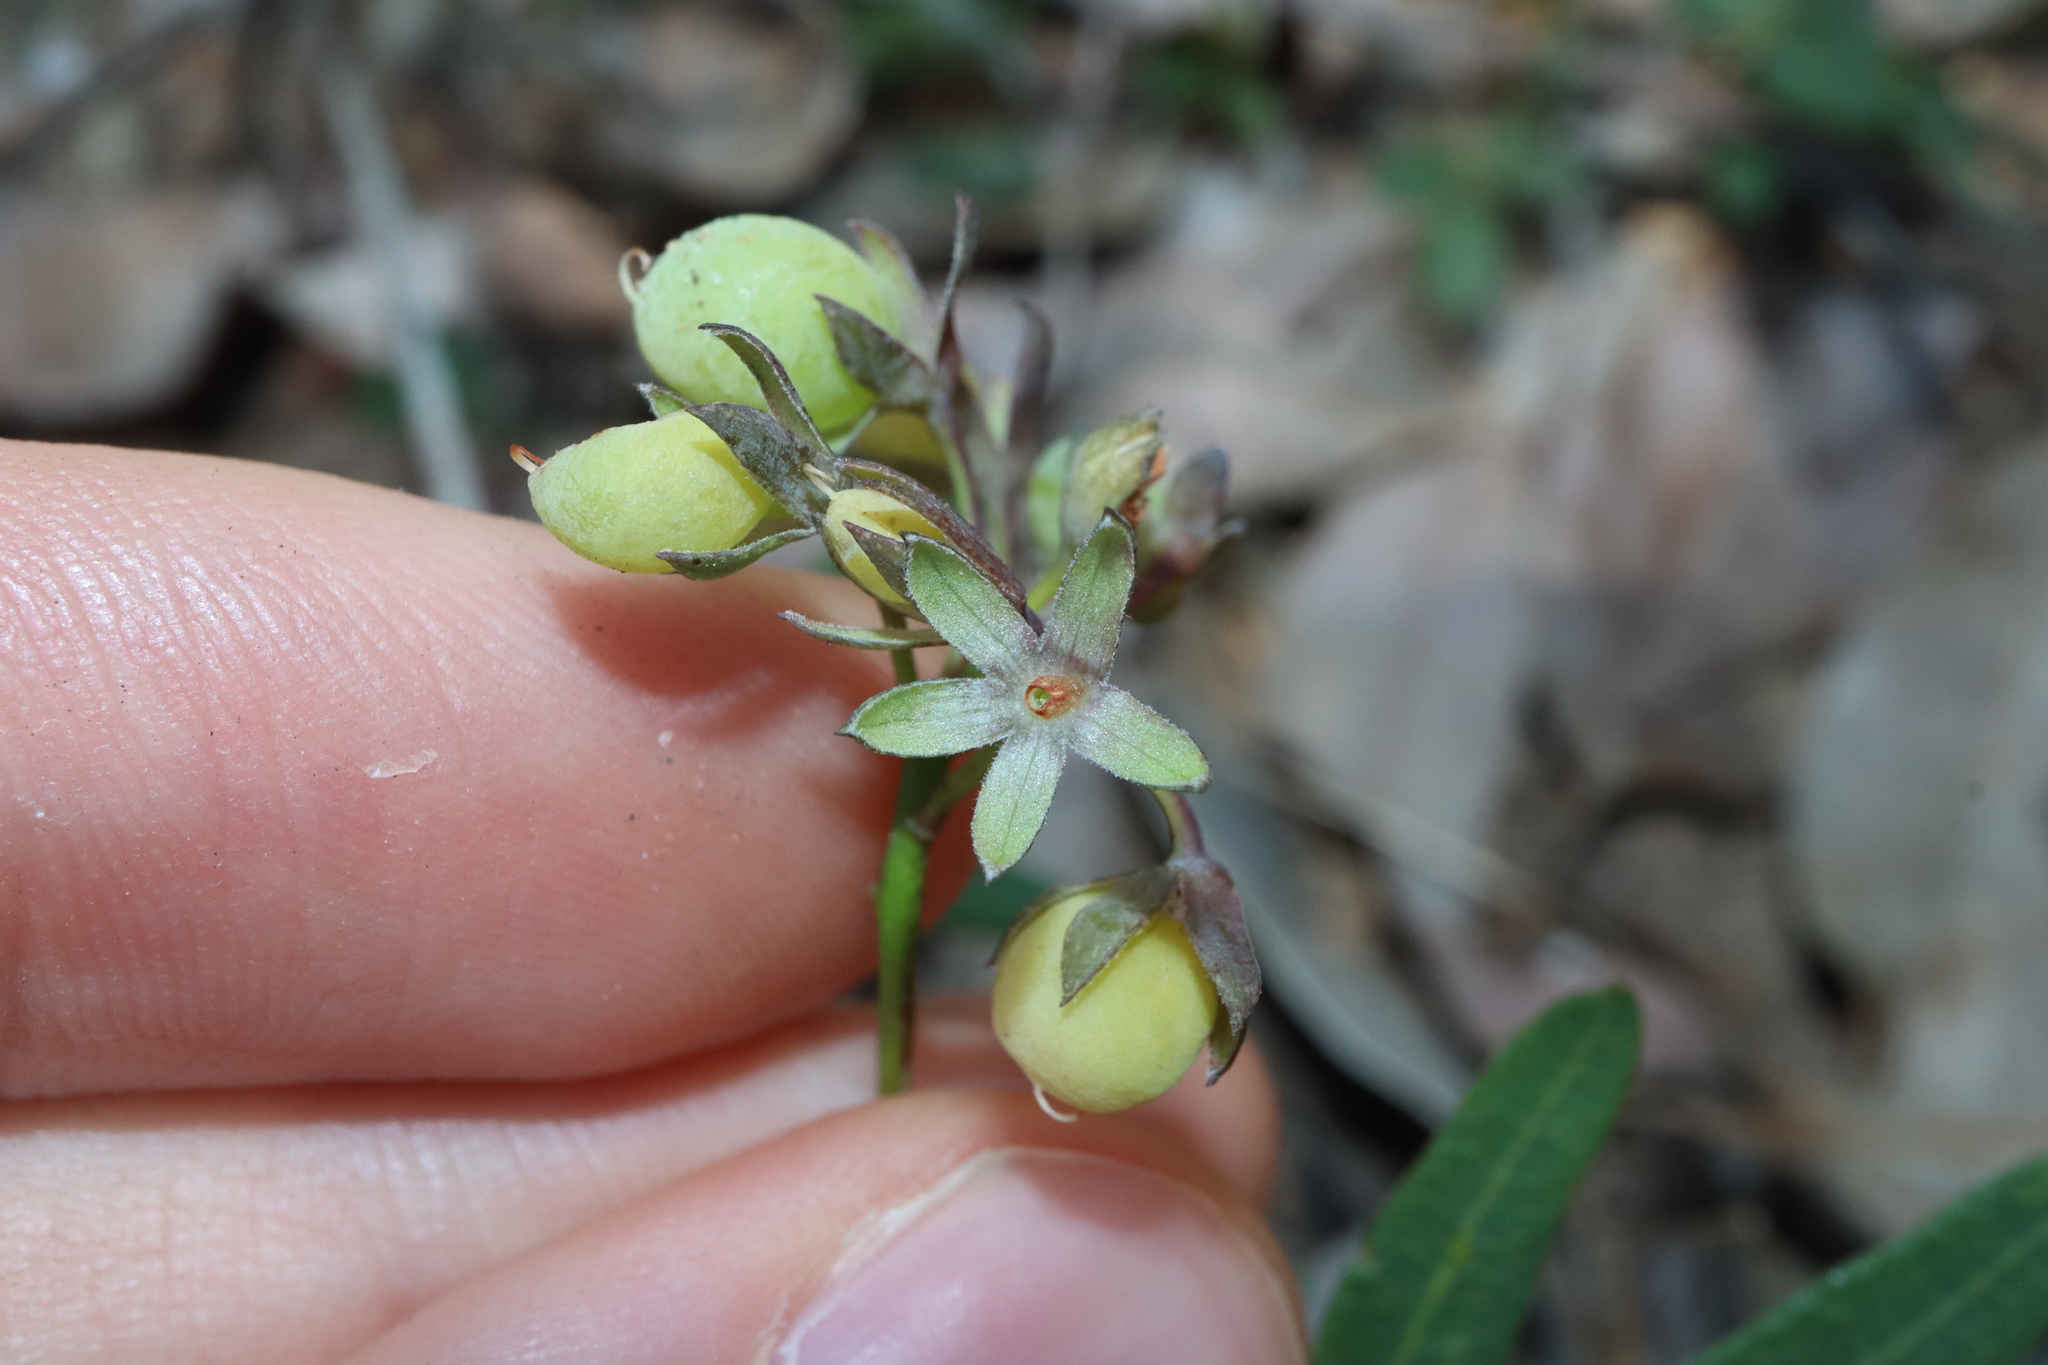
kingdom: Plantae
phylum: Tracheophyta
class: Magnoliopsida
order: Fabales
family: Fabaceae
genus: Gompholobium
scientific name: Gompholobium knightianum
